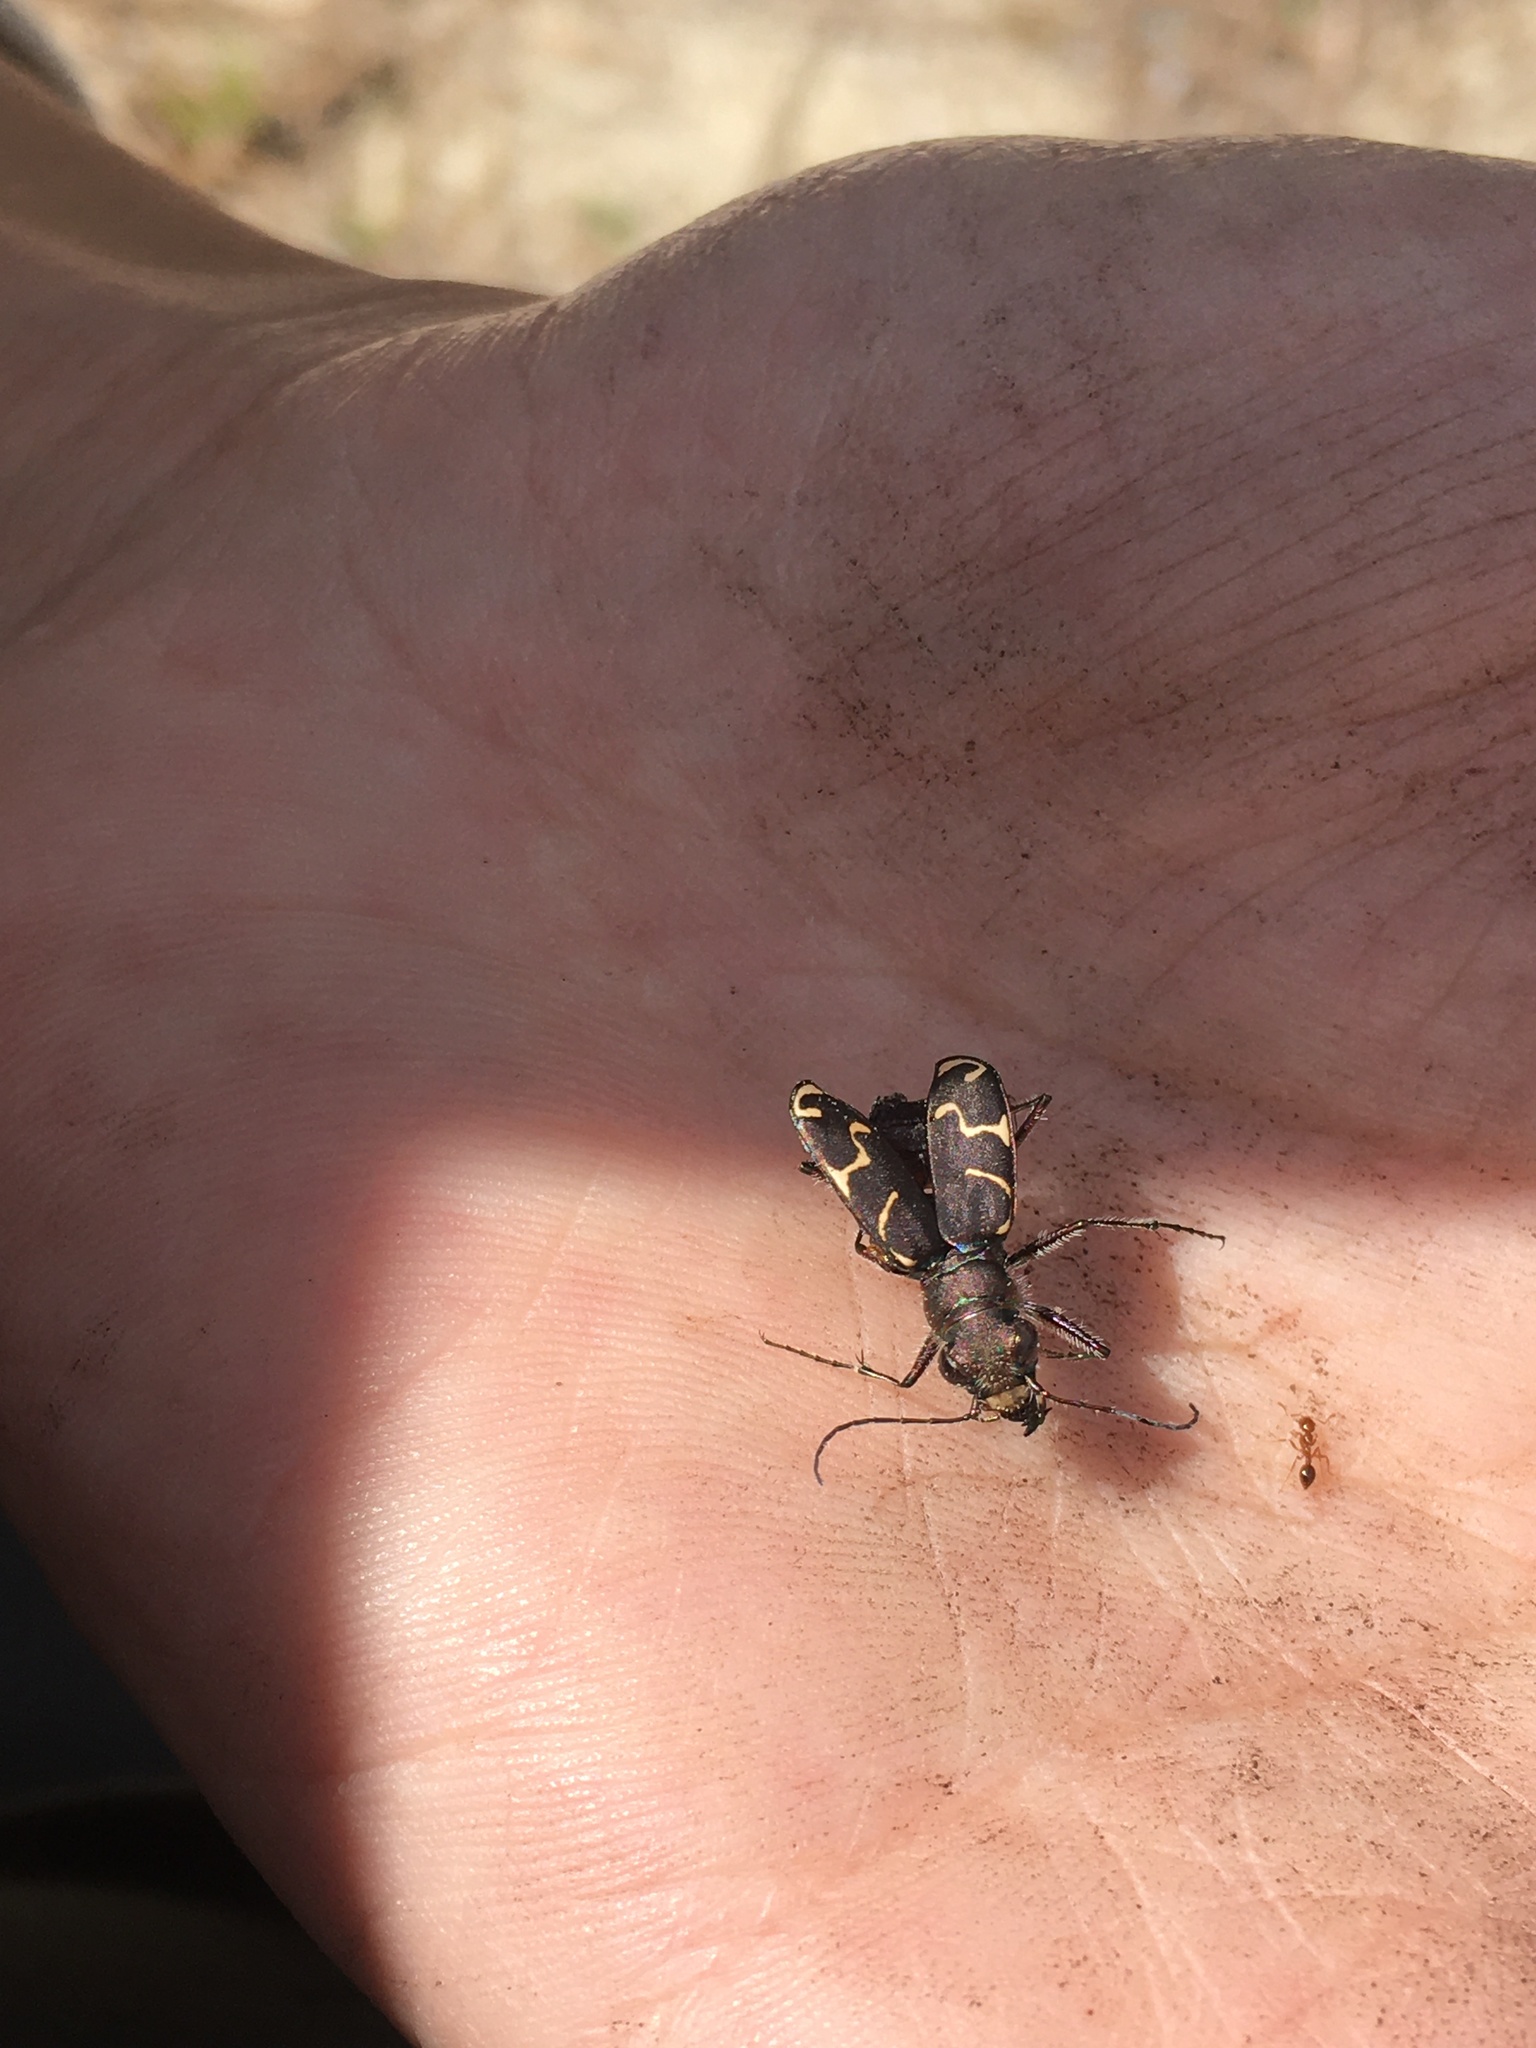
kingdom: Animalia
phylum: Arthropoda
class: Insecta
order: Coleoptera
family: Carabidae
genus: Cicindela
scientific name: Cicindela tranquebarica
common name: Oblique-lined tiger beetle
